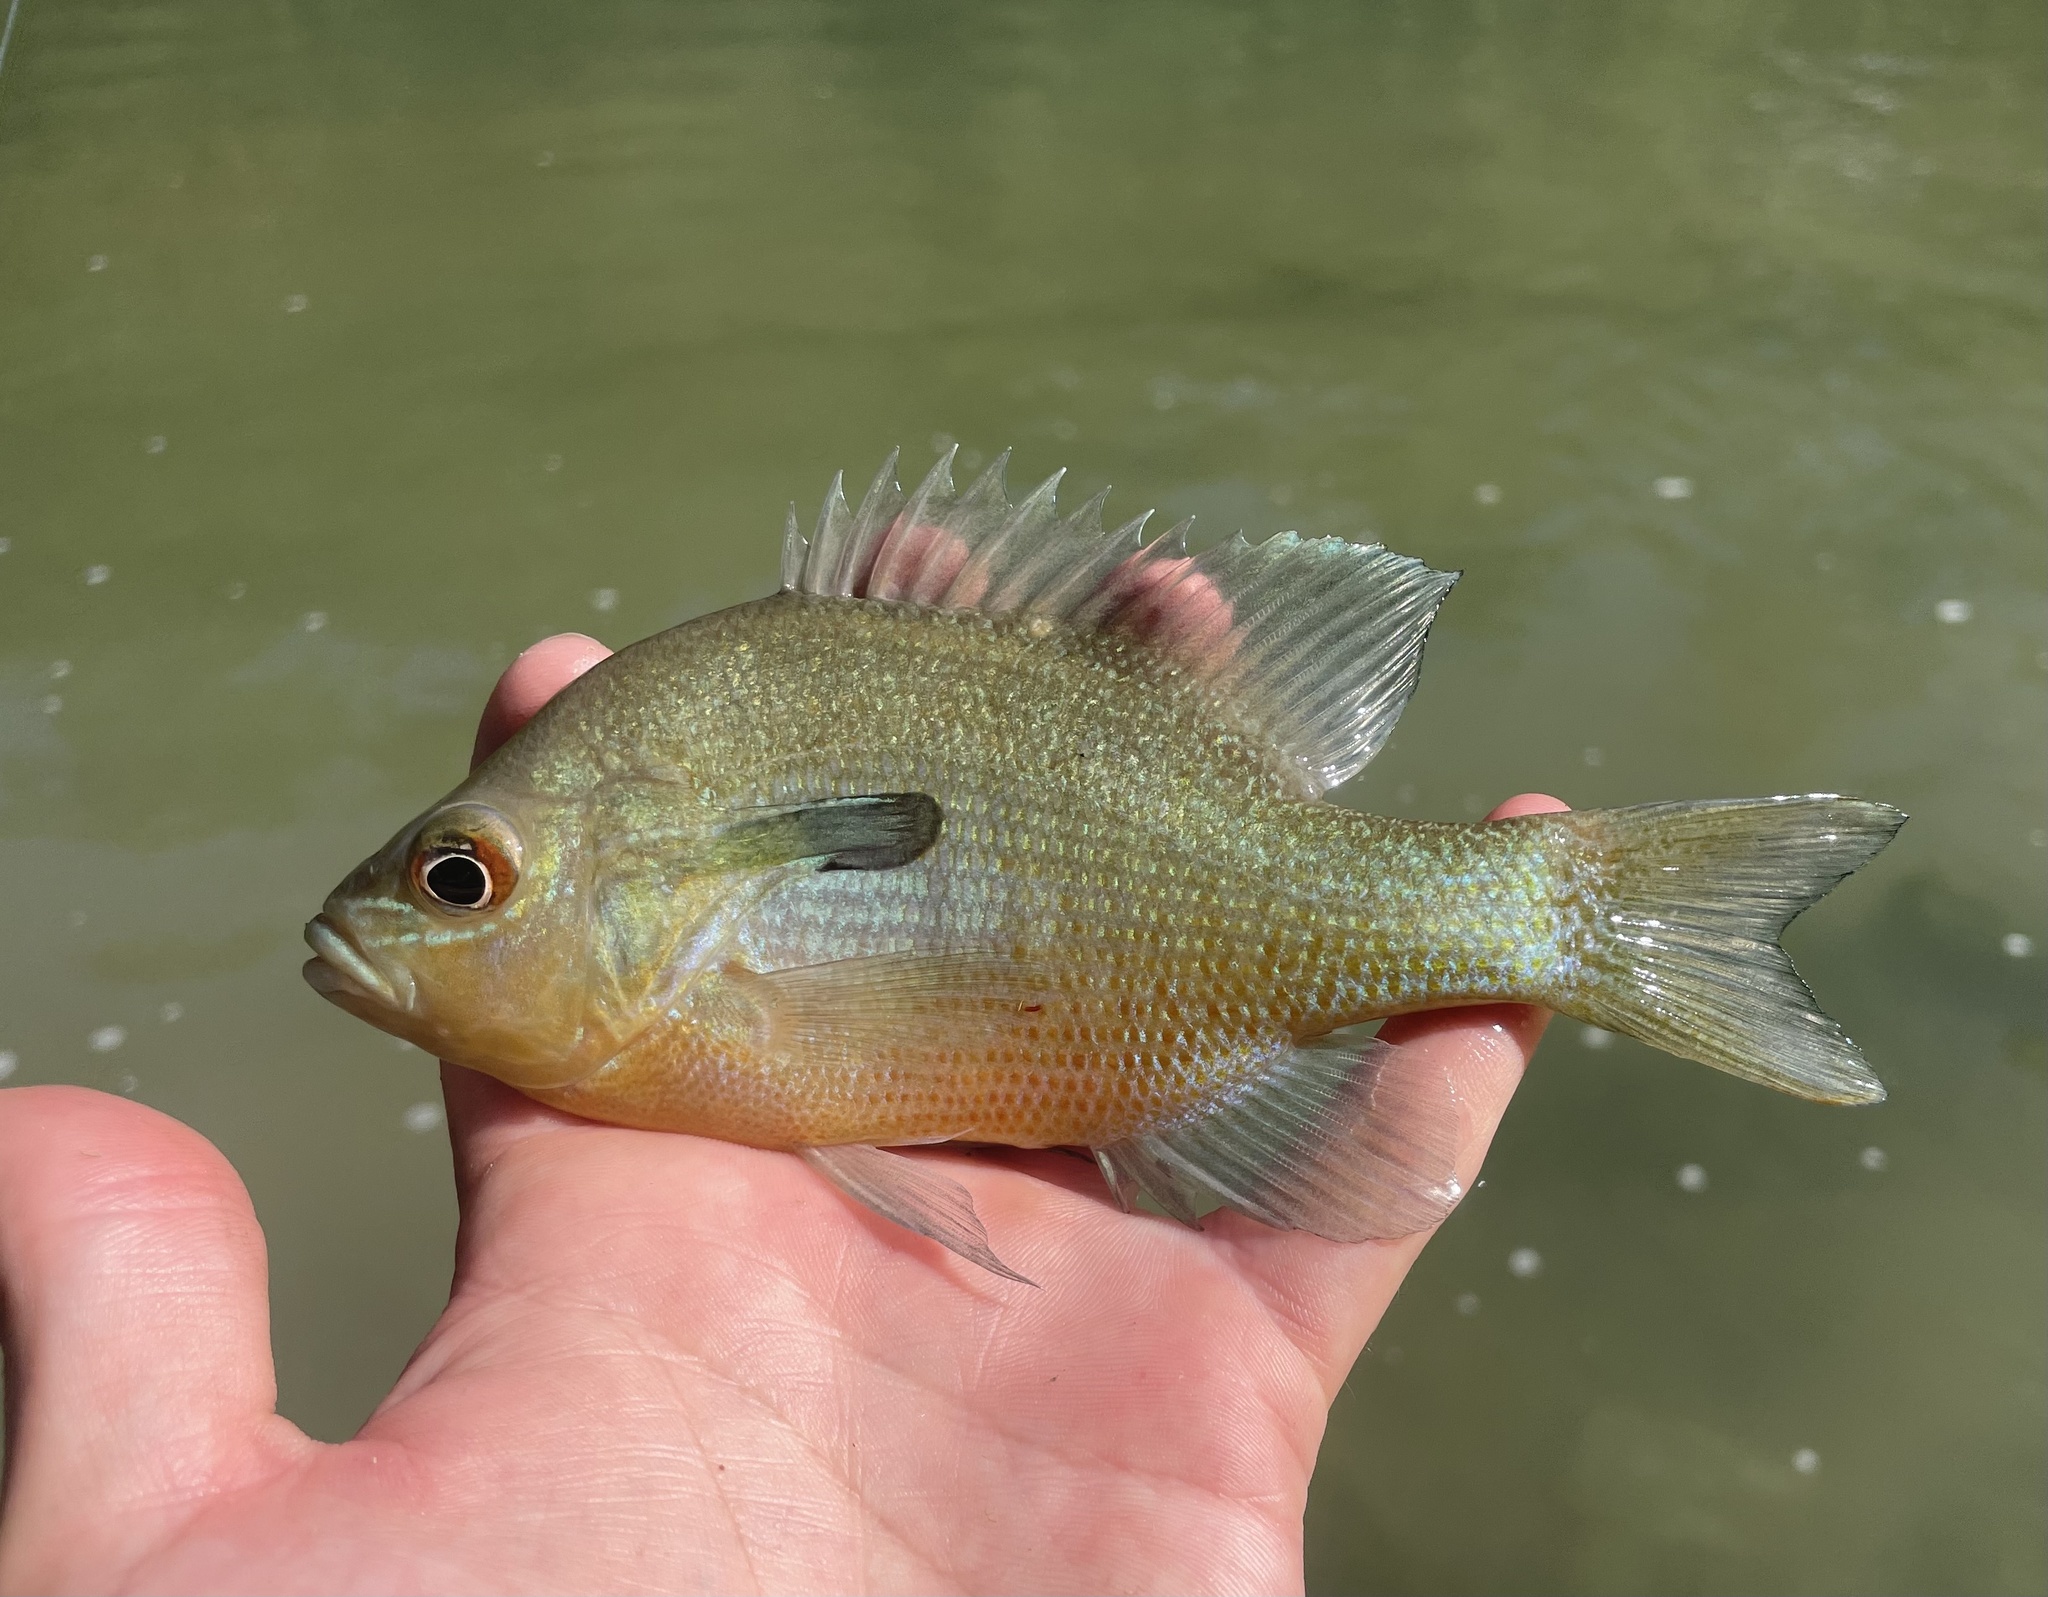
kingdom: Animalia
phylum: Chordata
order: Perciformes
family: Centrarchidae
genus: Lepomis
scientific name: Lepomis auritus
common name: Redbreast sunfish
